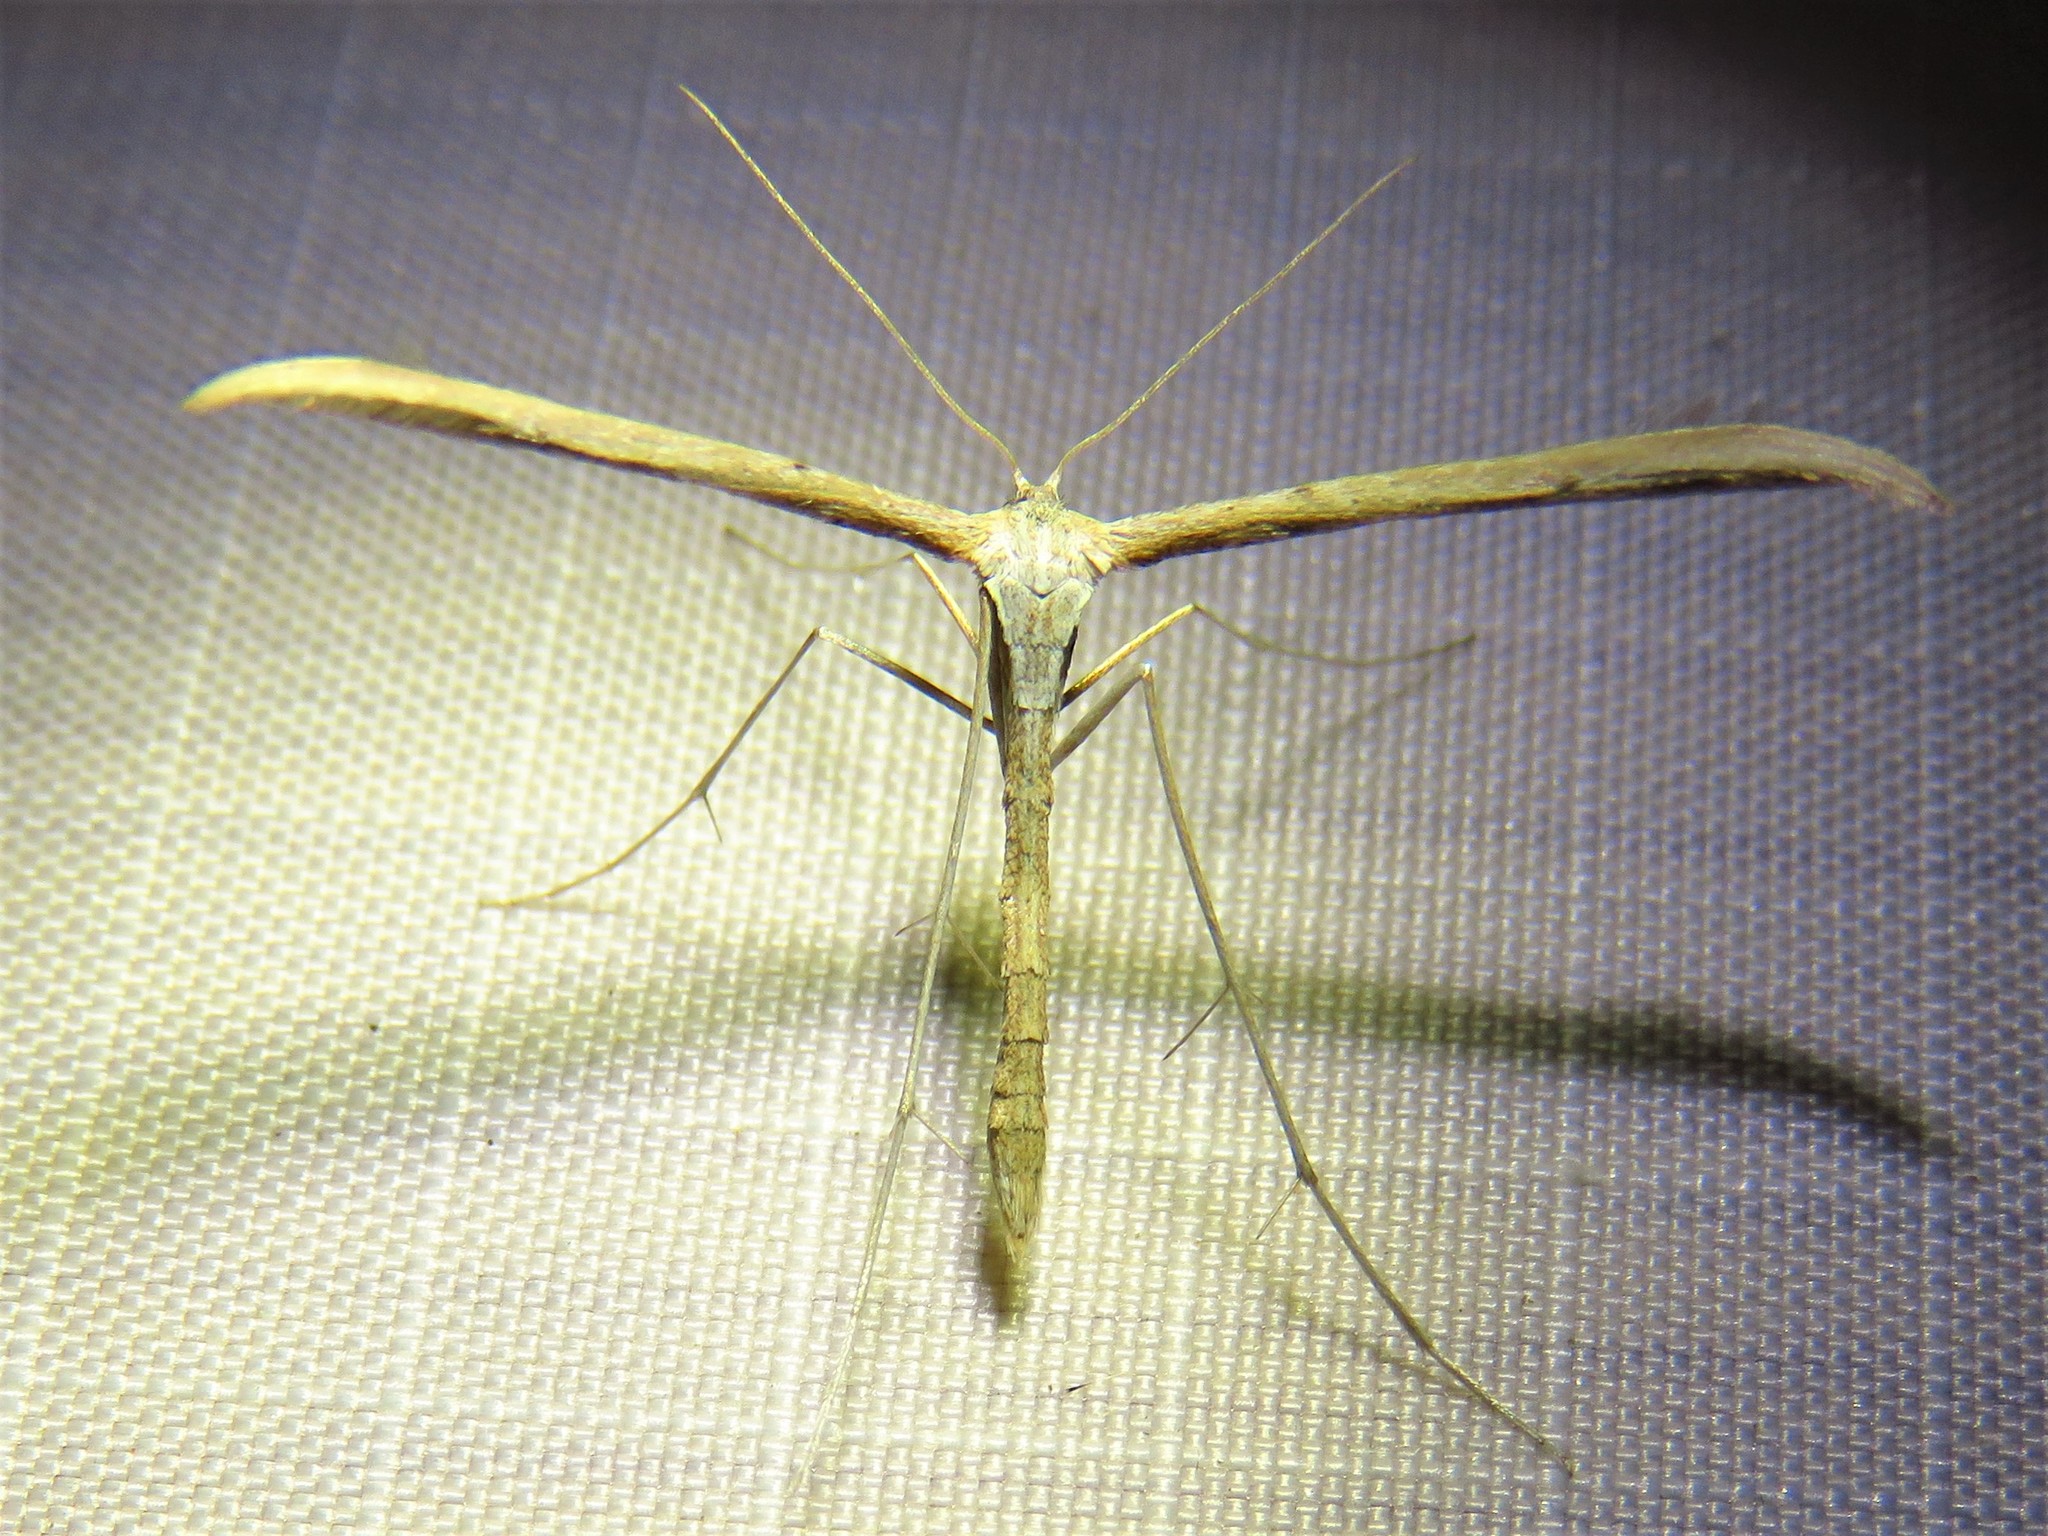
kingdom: Animalia
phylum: Arthropoda
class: Insecta
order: Lepidoptera
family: Pterophoridae
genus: Emmelina
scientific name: Emmelina monodactyla
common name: Common plume
